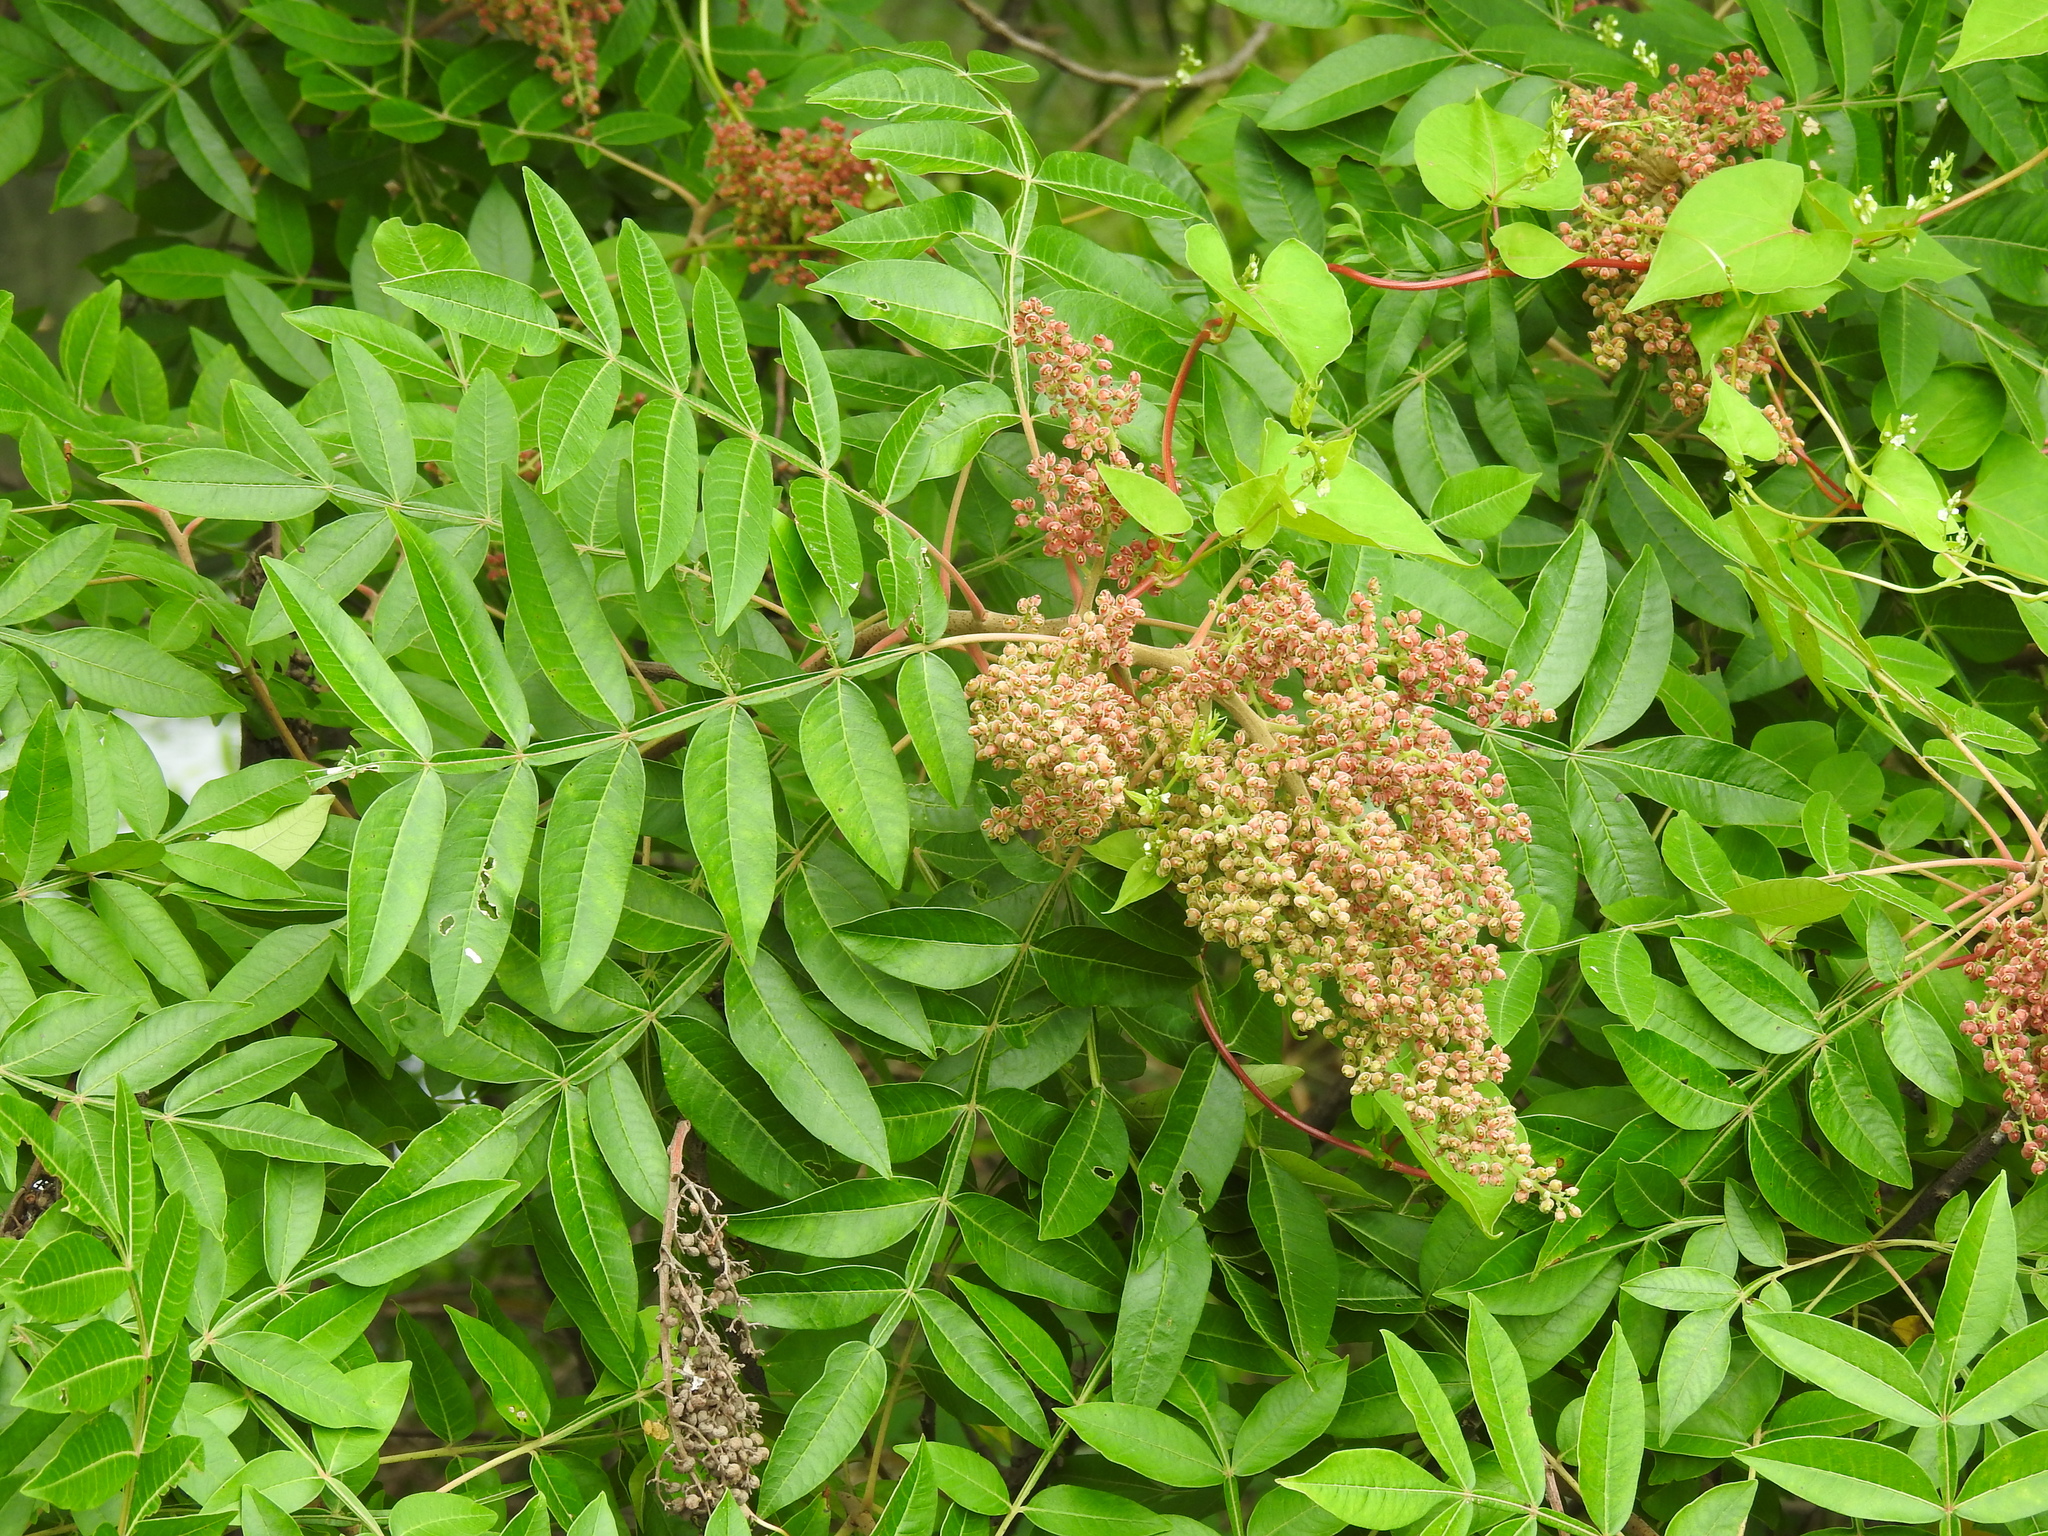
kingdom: Plantae
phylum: Tracheophyta
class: Magnoliopsida
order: Sapindales
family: Anacardiaceae
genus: Rhus
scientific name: Rhus copallina
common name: Shining sumac
